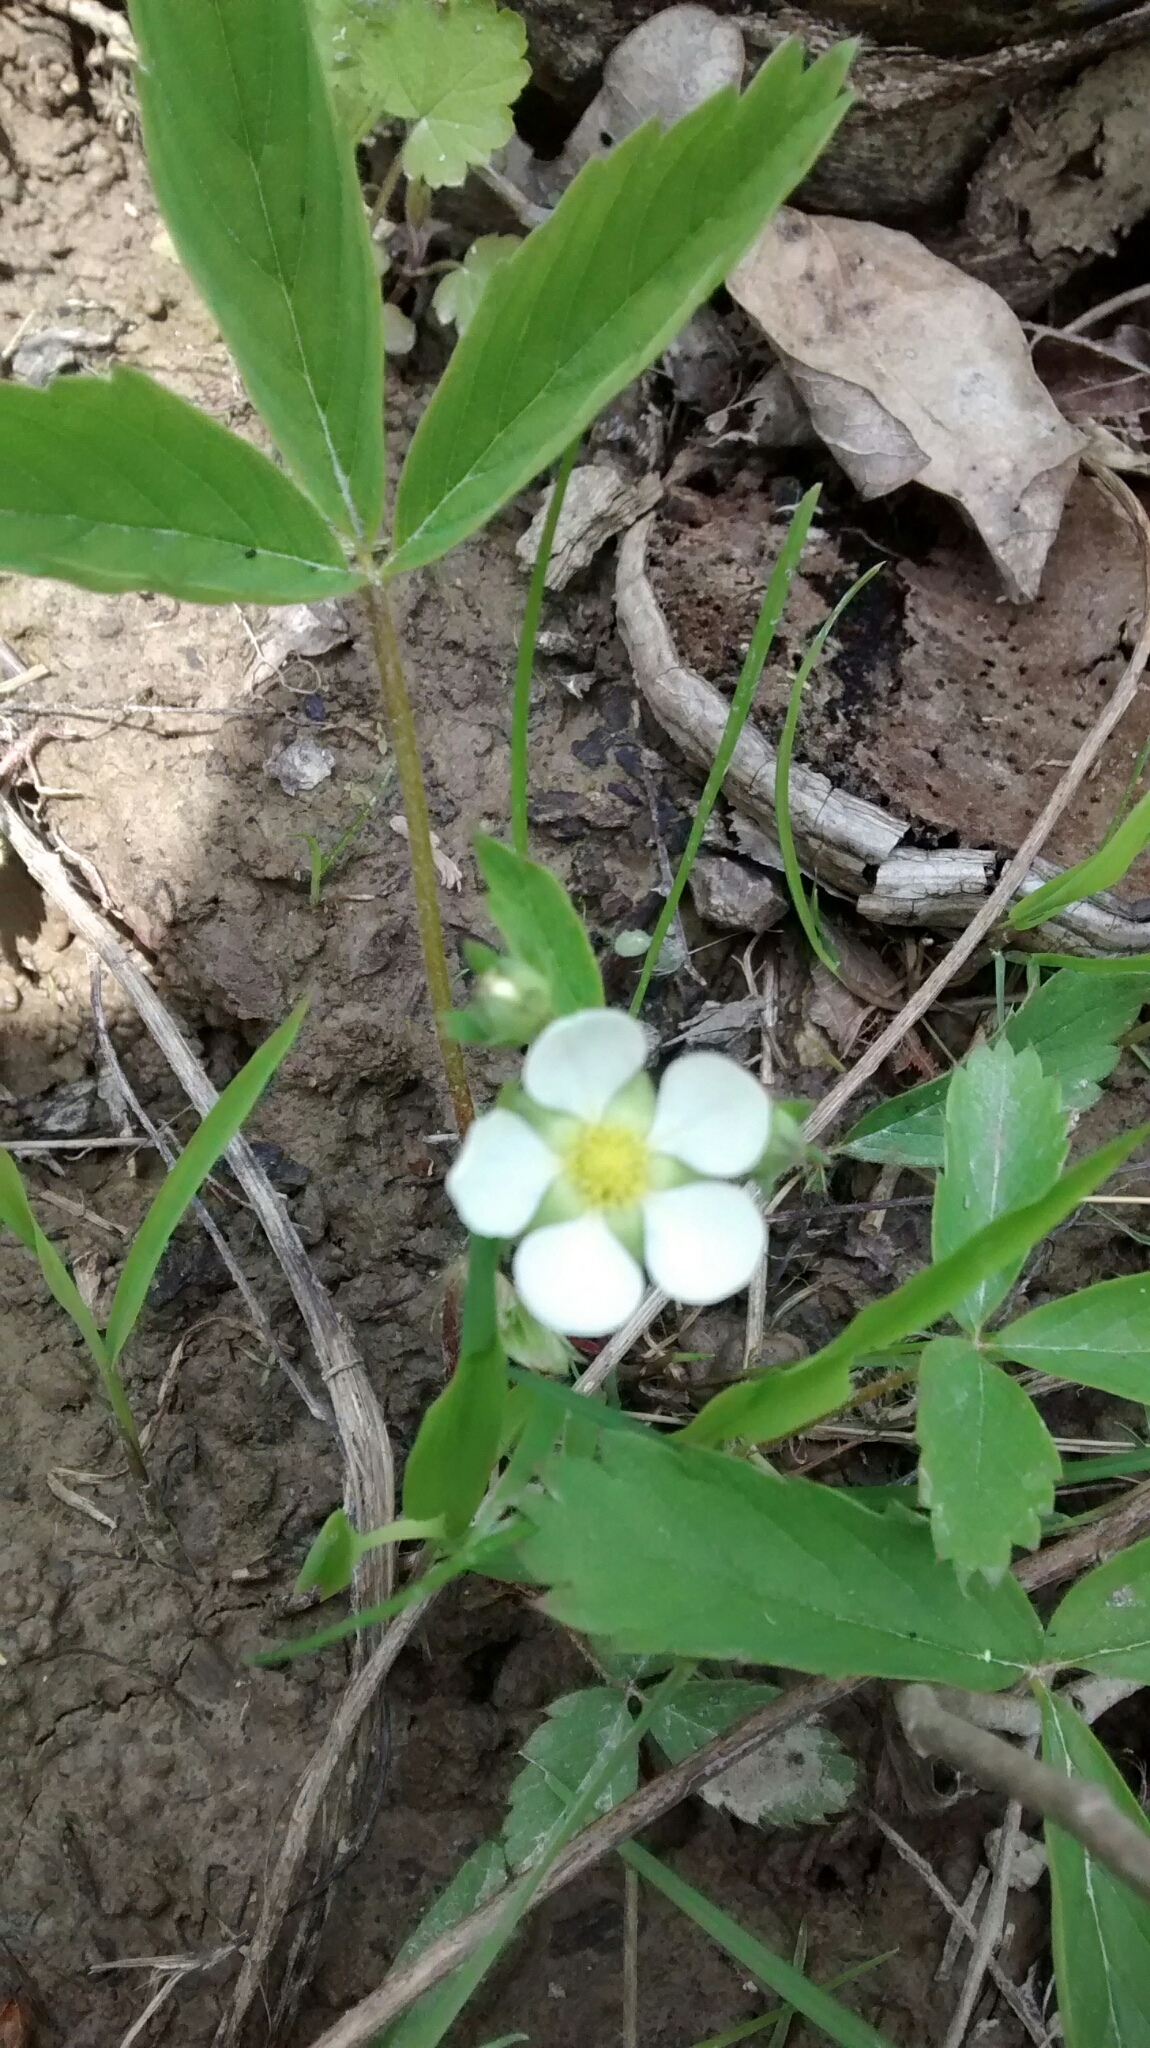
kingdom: Plantae
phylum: Tracheophyta
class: Magnoliopsida
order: Rosales
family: Rosaceae
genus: Fragaria
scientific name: Fragaria vesca
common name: Wild strawberry
